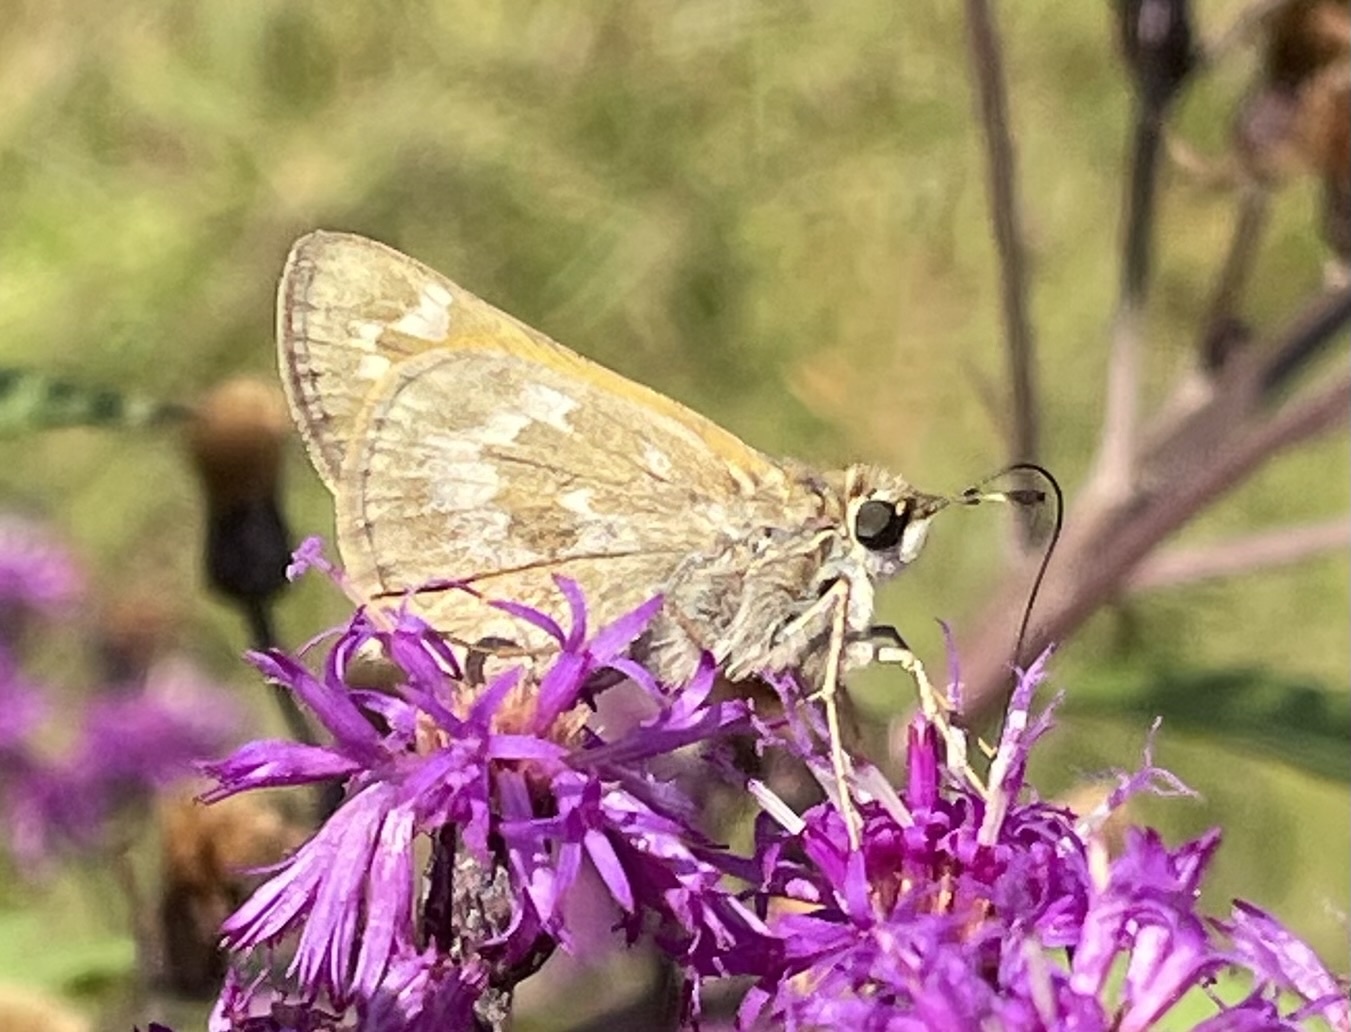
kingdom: Animalia
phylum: Arthropoda
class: Insecta
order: Lepidoptera
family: Hesperiidae
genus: Atalopedes
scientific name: Atalopedes
